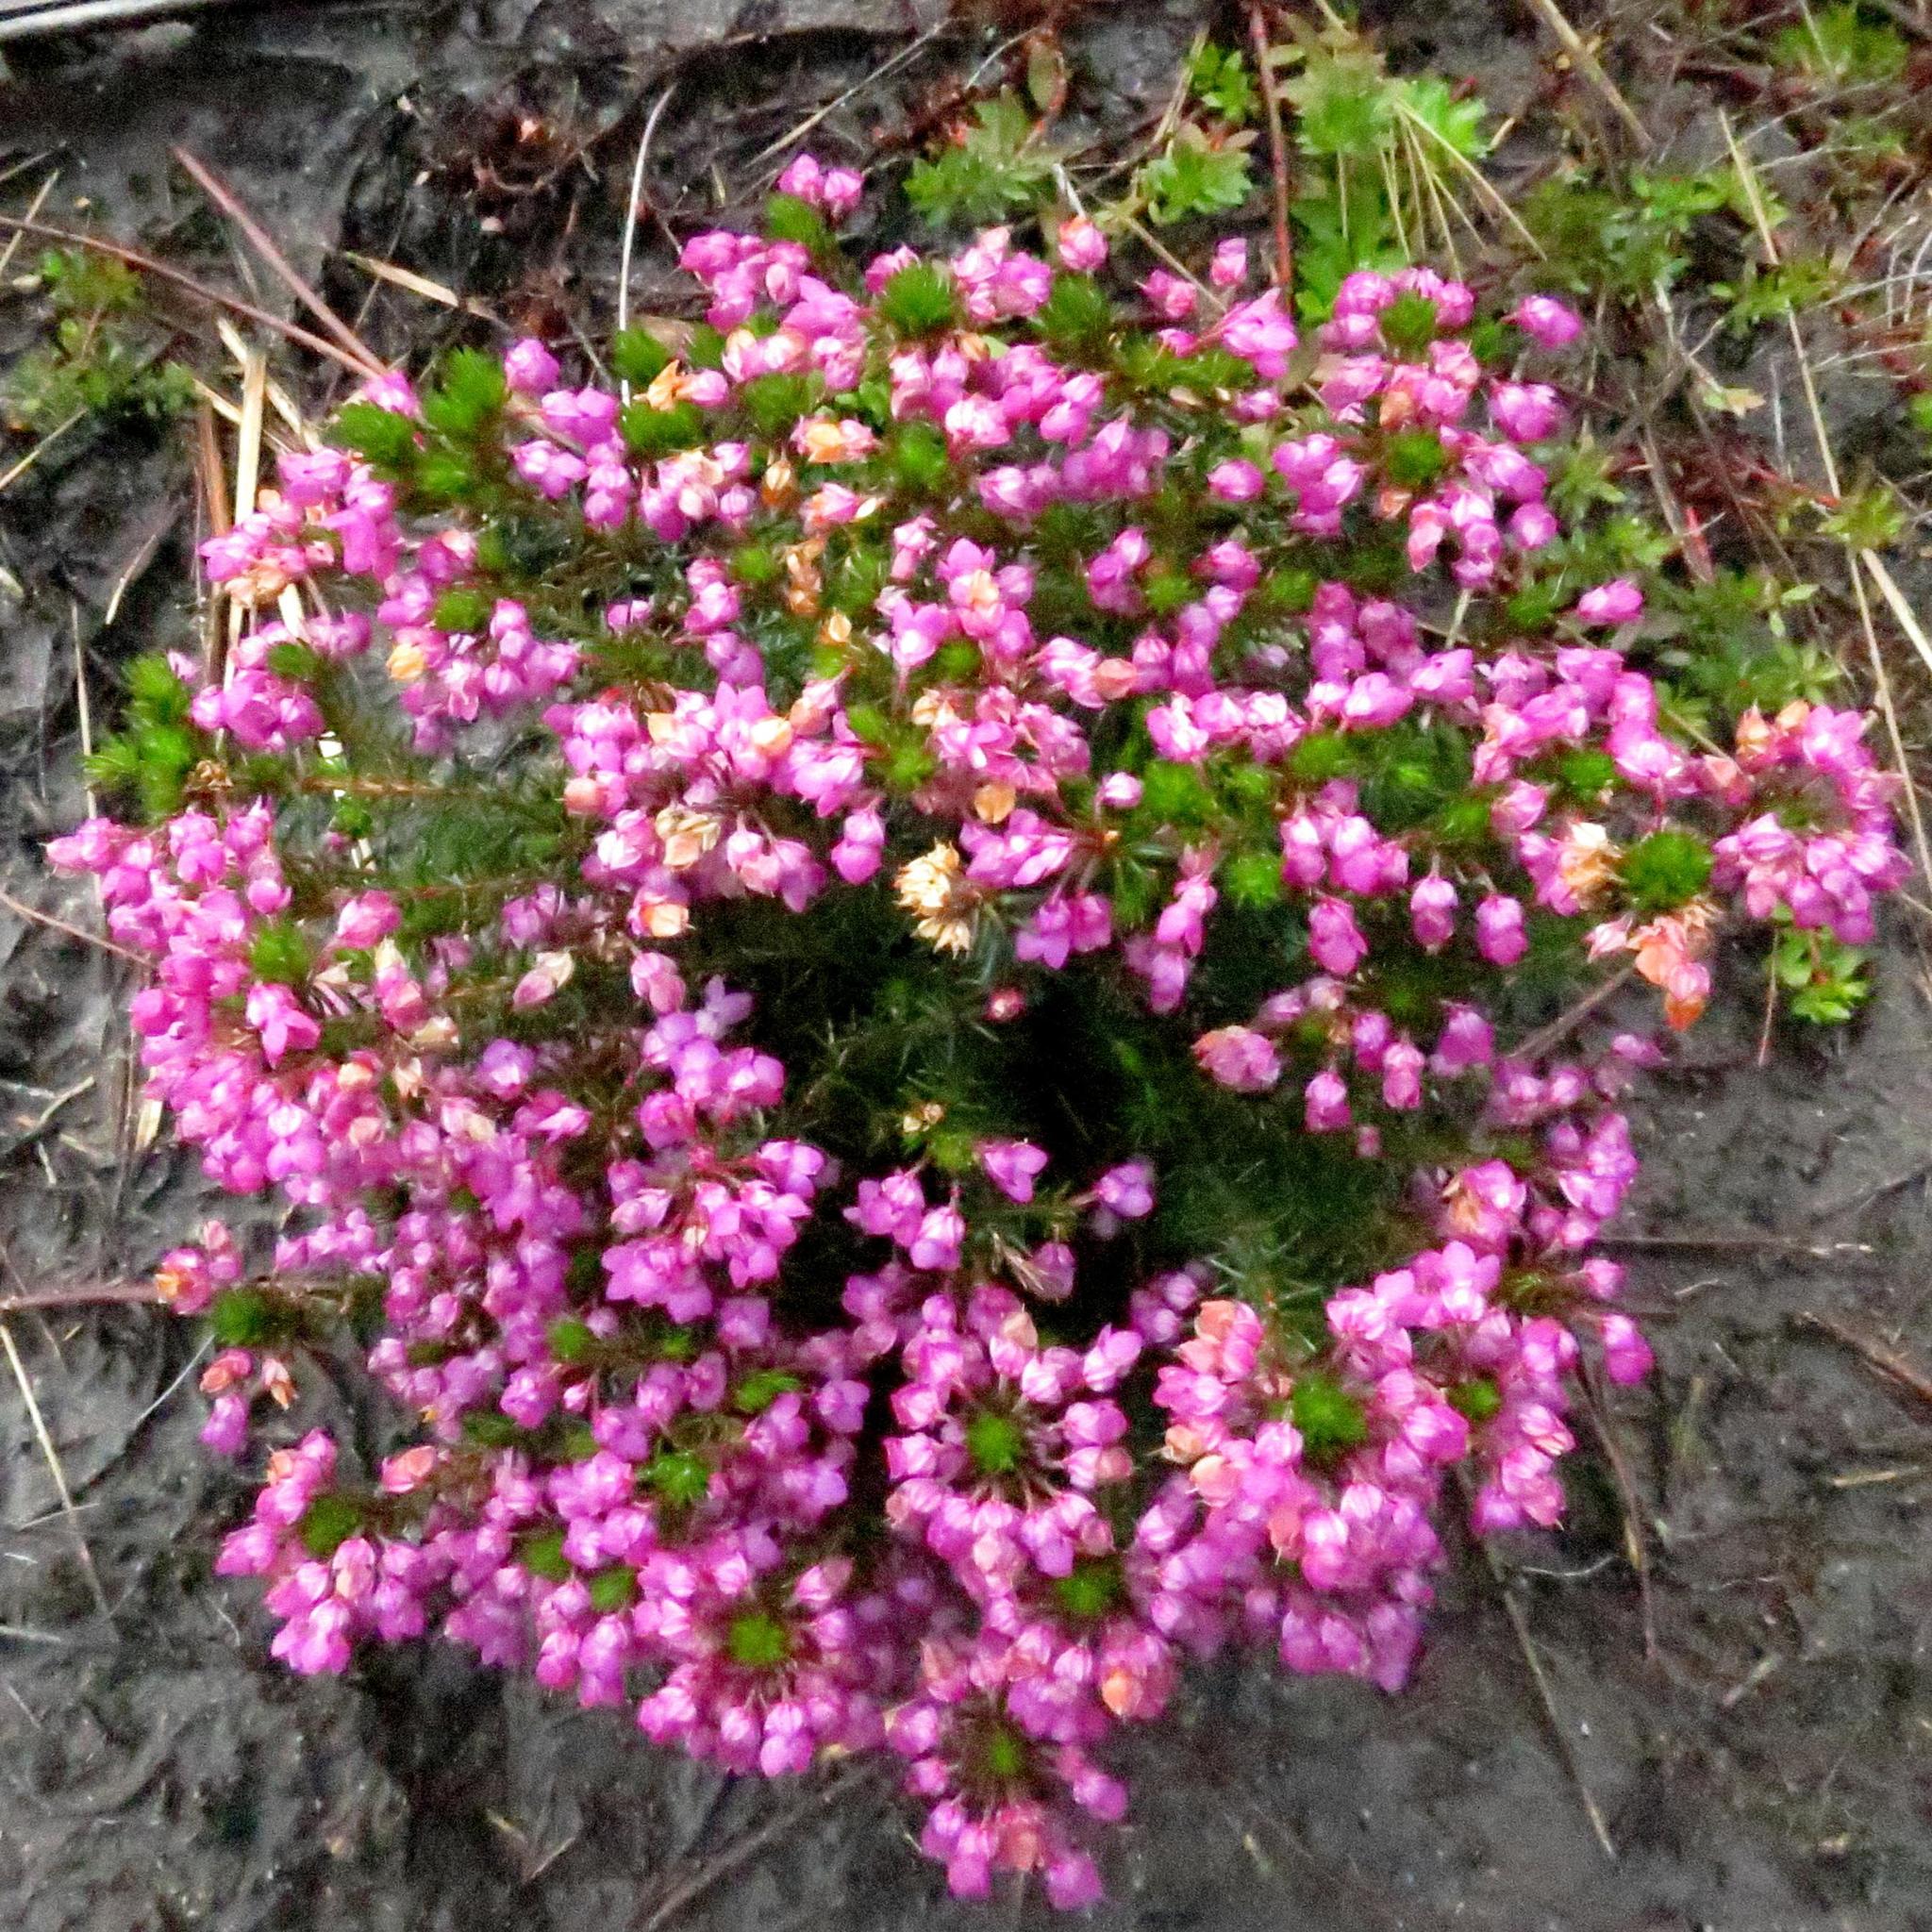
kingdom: Plantae
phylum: Tracheophyta
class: Magnoliopsida
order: Ericales
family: Ericaceae
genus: Erica
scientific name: Erica cubica
